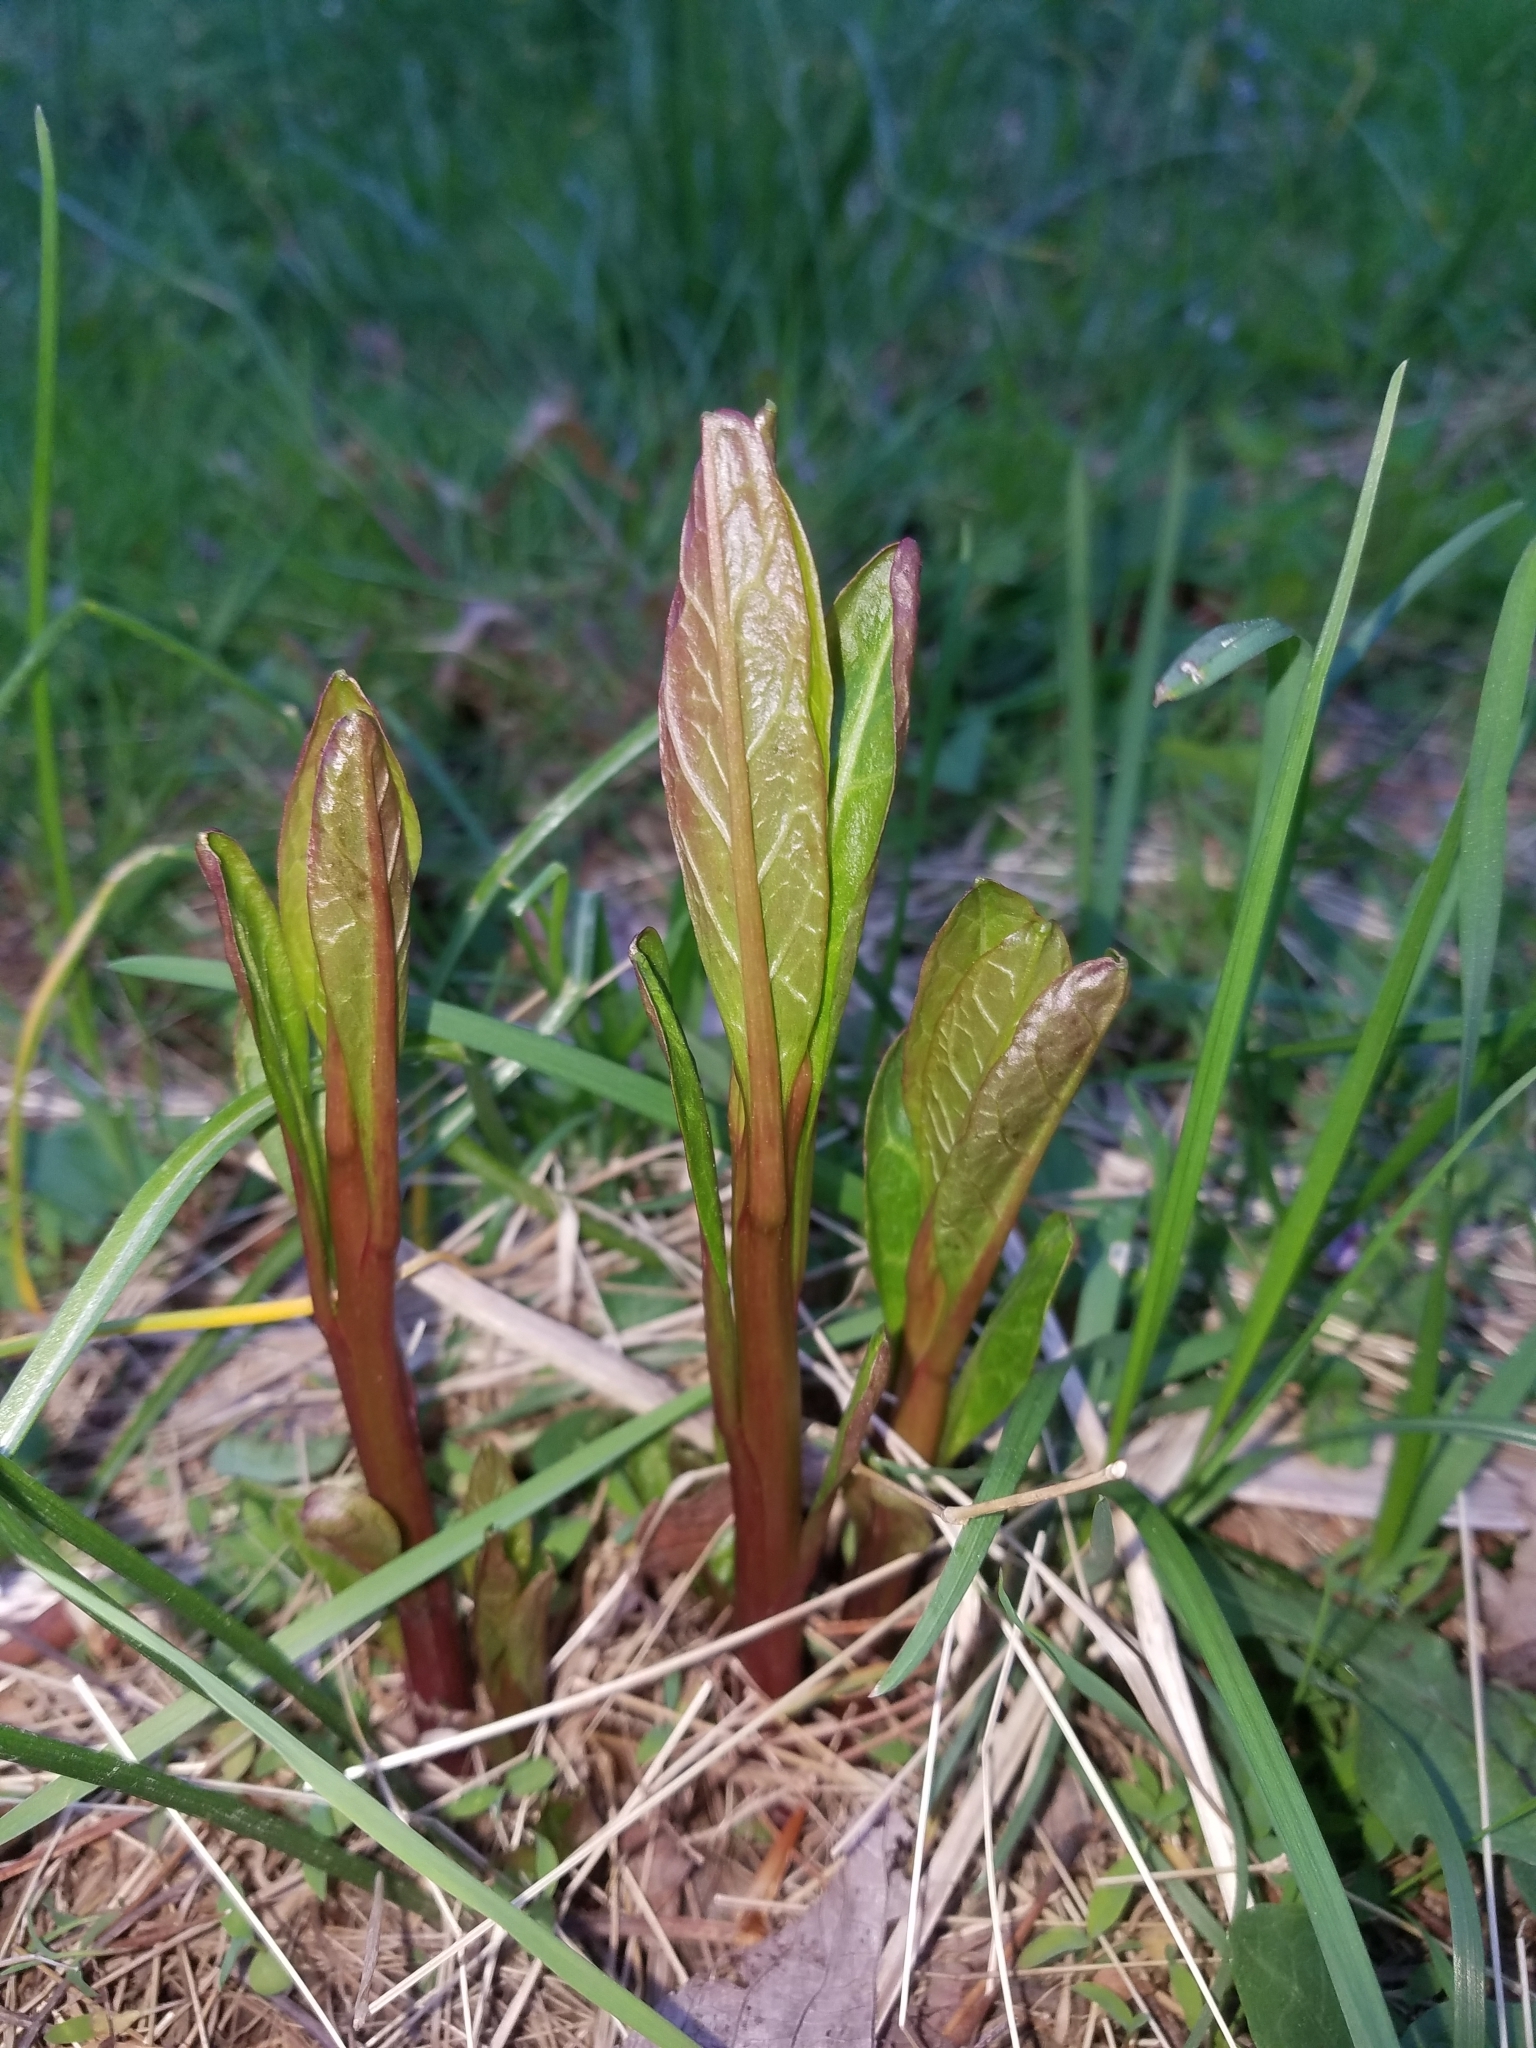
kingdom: Plantae
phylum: Tracheophyta
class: Magnoliopsida
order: Caryophyllales
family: Phytolaccaceae
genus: Phytolacca
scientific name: Phytolacca americana
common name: American pokeweed
